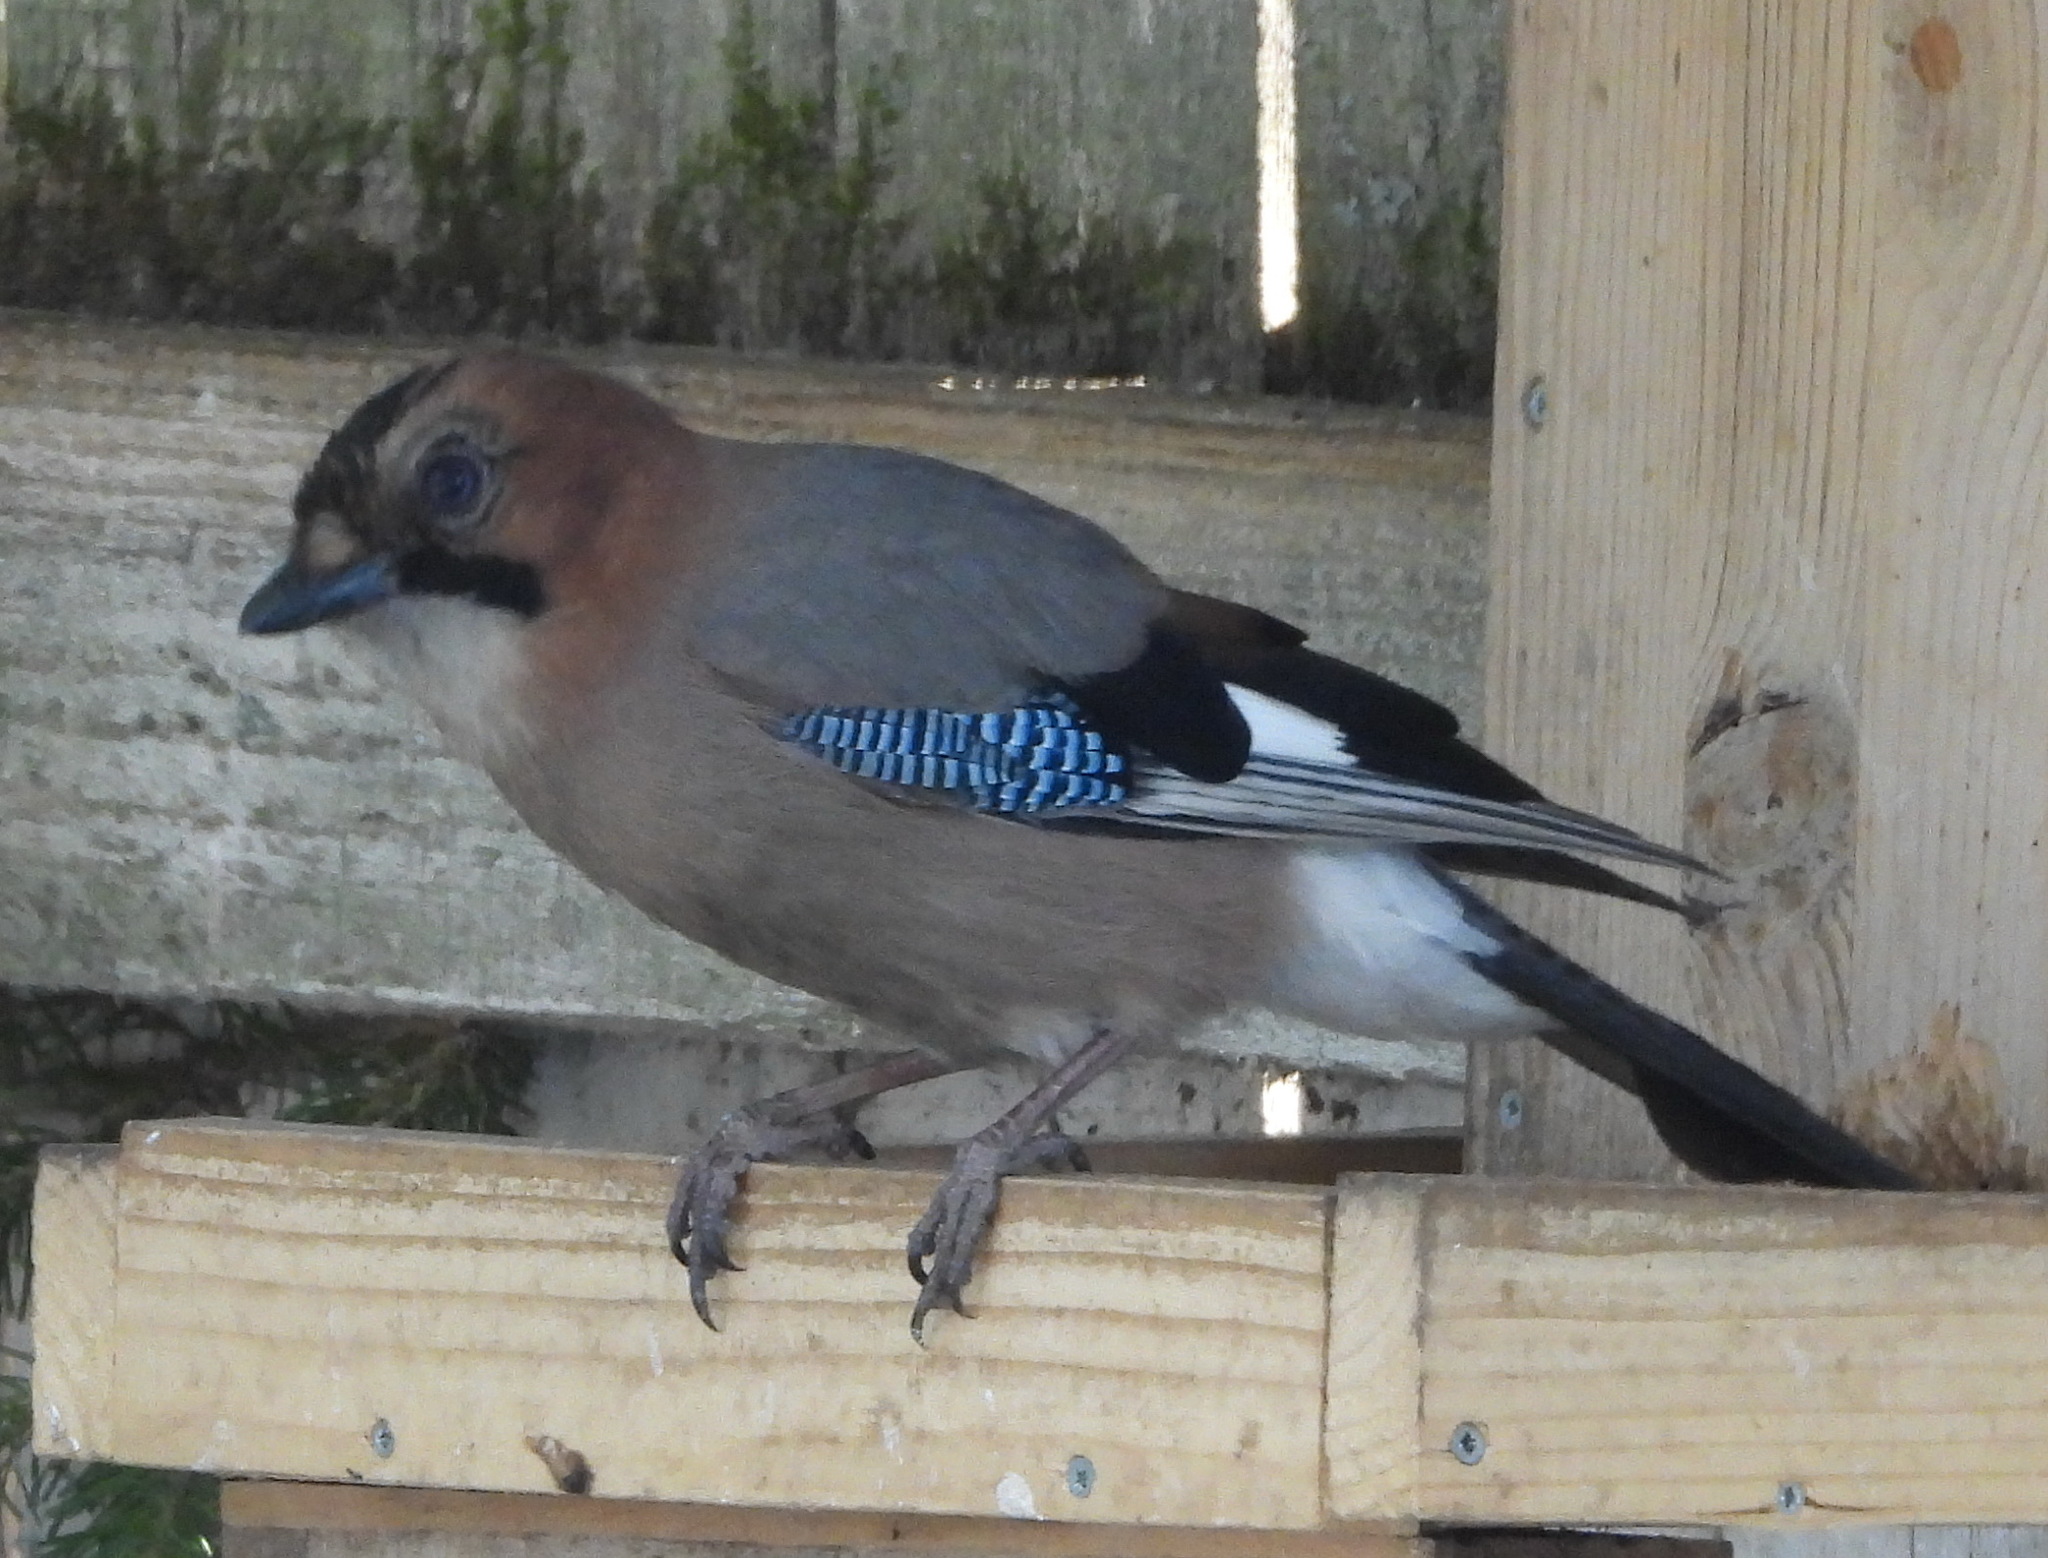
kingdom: Animalia
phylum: Chordata
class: Aves
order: Passeriformes
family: Corvidae
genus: Garrulus
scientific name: Garrulus glandarius
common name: Eurasian jay
